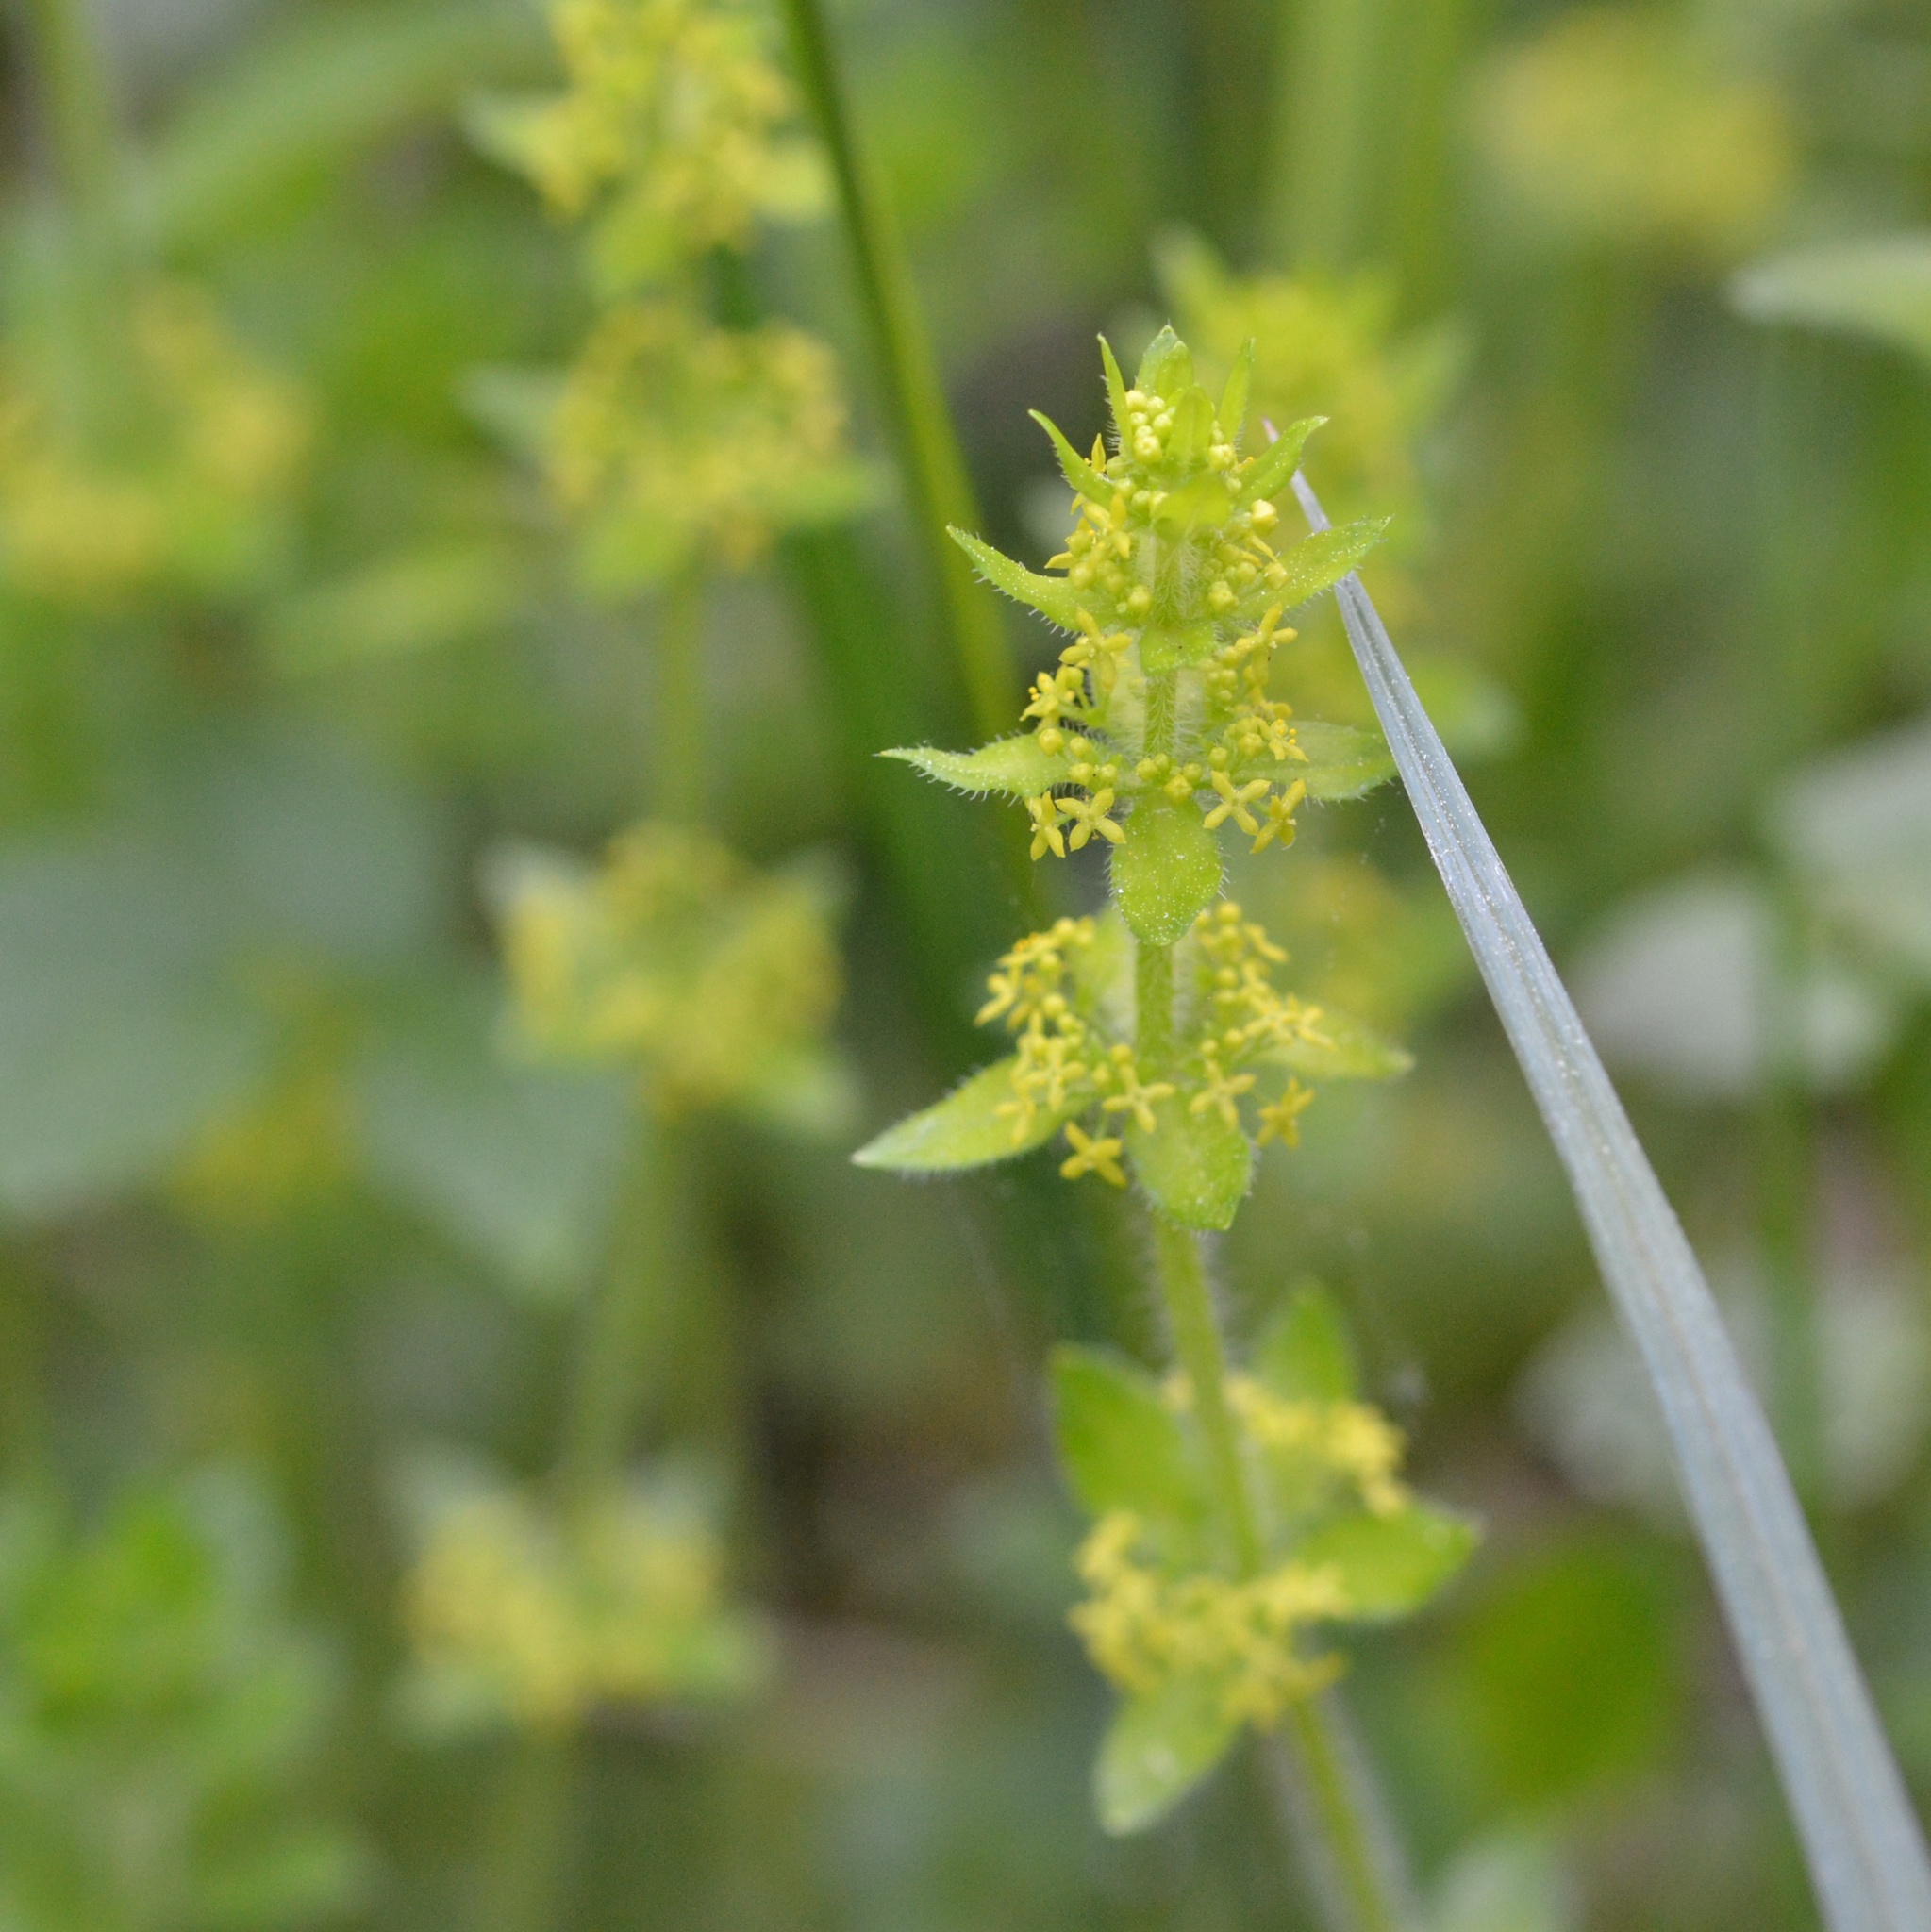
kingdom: Plantae
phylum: Tracheophyta
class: Magnoliopsida
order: Gentianales
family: Rubiaceae
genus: Cruciata
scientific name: Cruciata laevipes
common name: Crosswort
